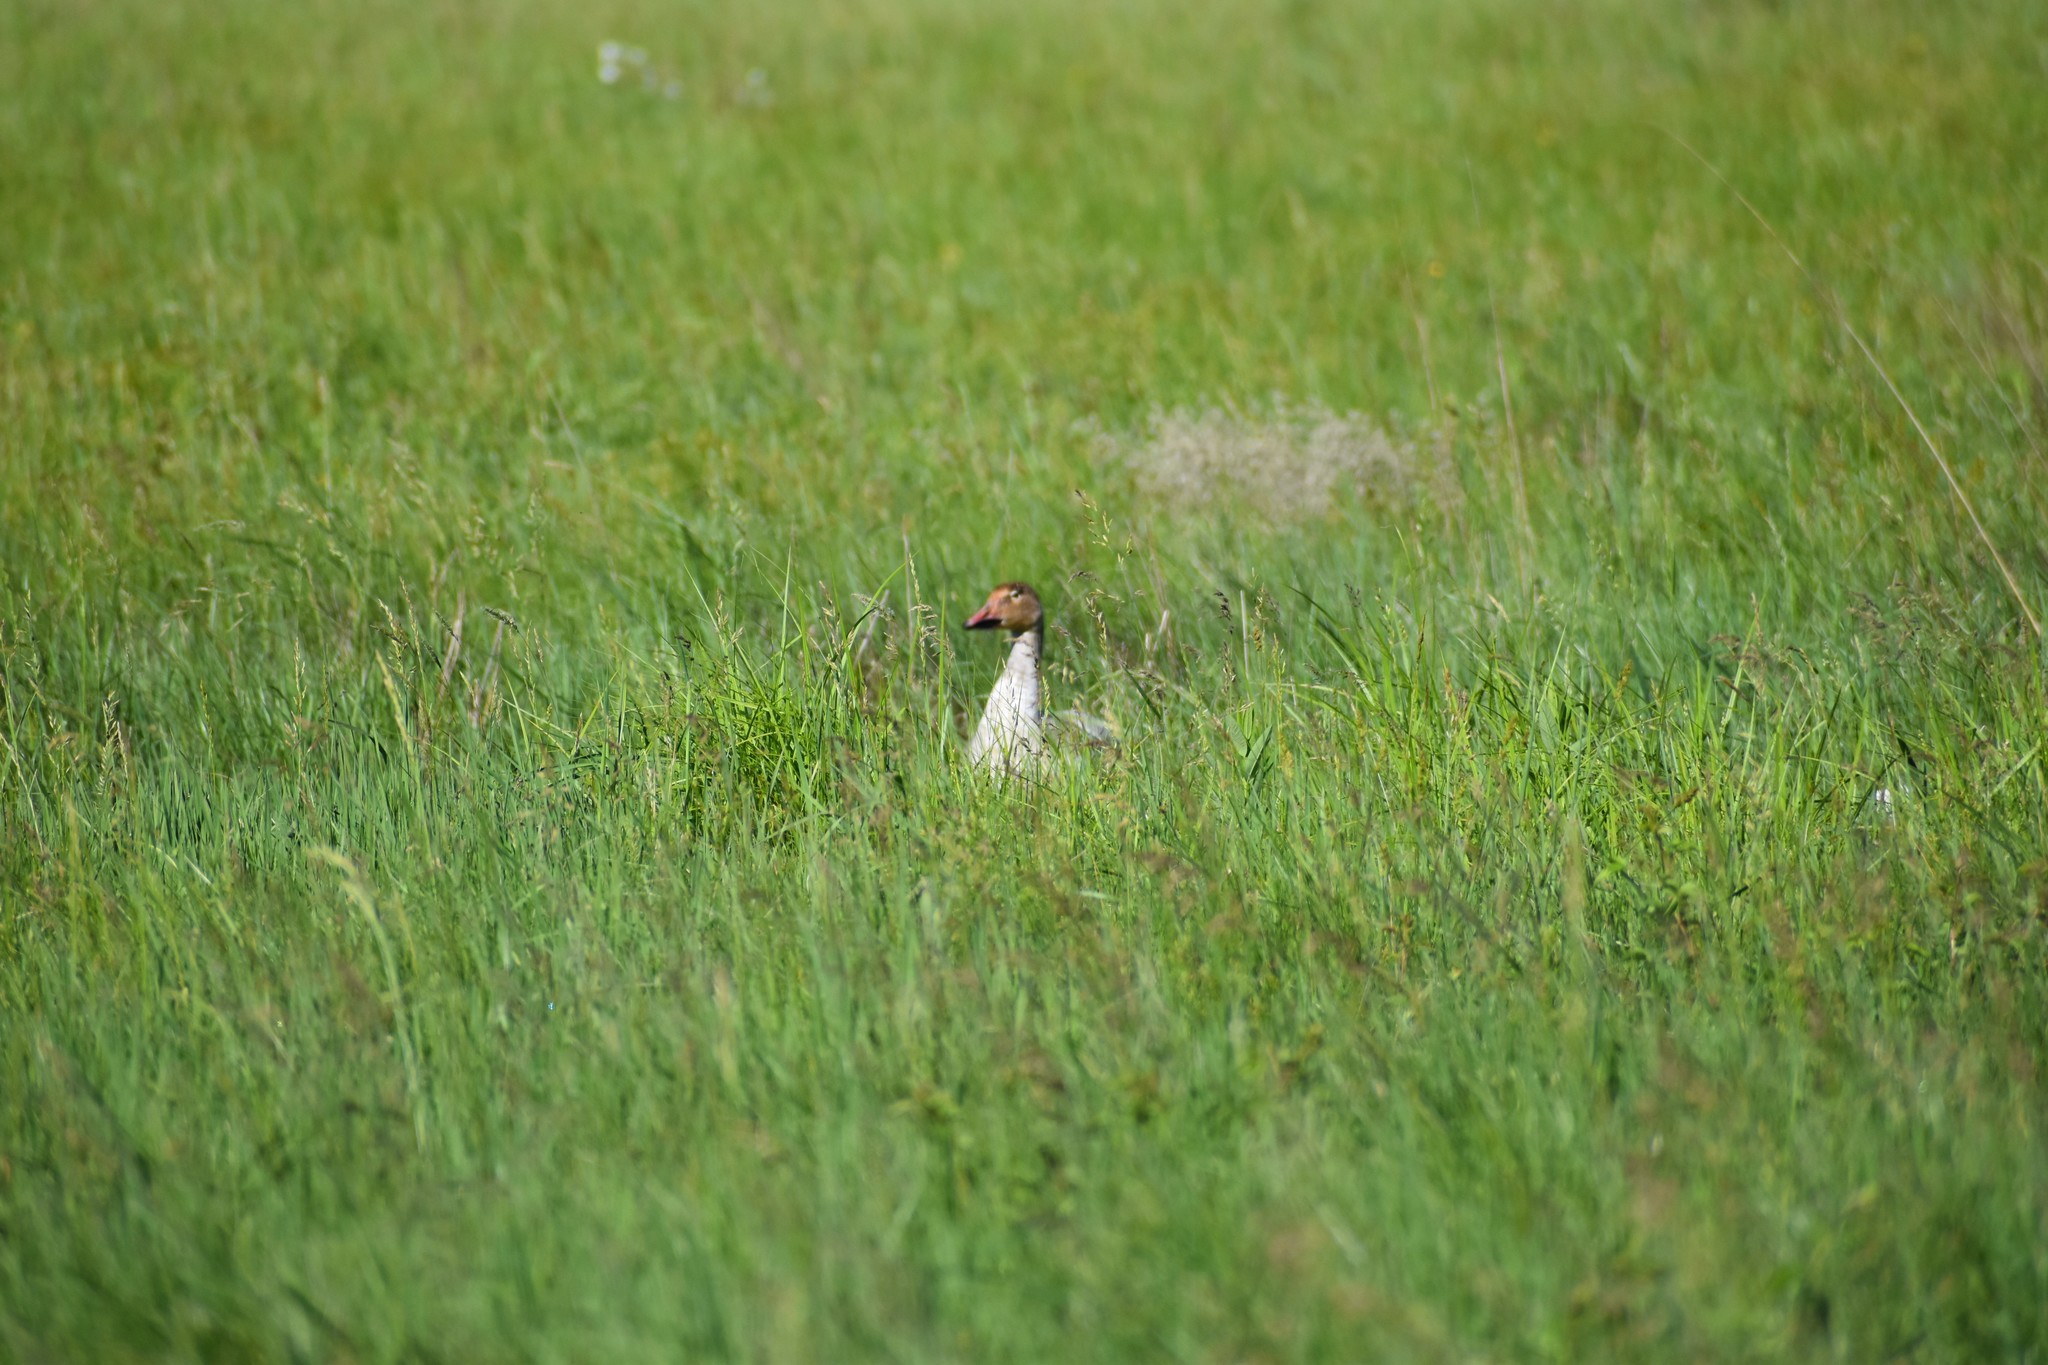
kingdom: Animalia
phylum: Chordata
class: Aves
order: Anseriformes
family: Anatidae
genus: Anser
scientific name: Anser caerulescens
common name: Snow goose
